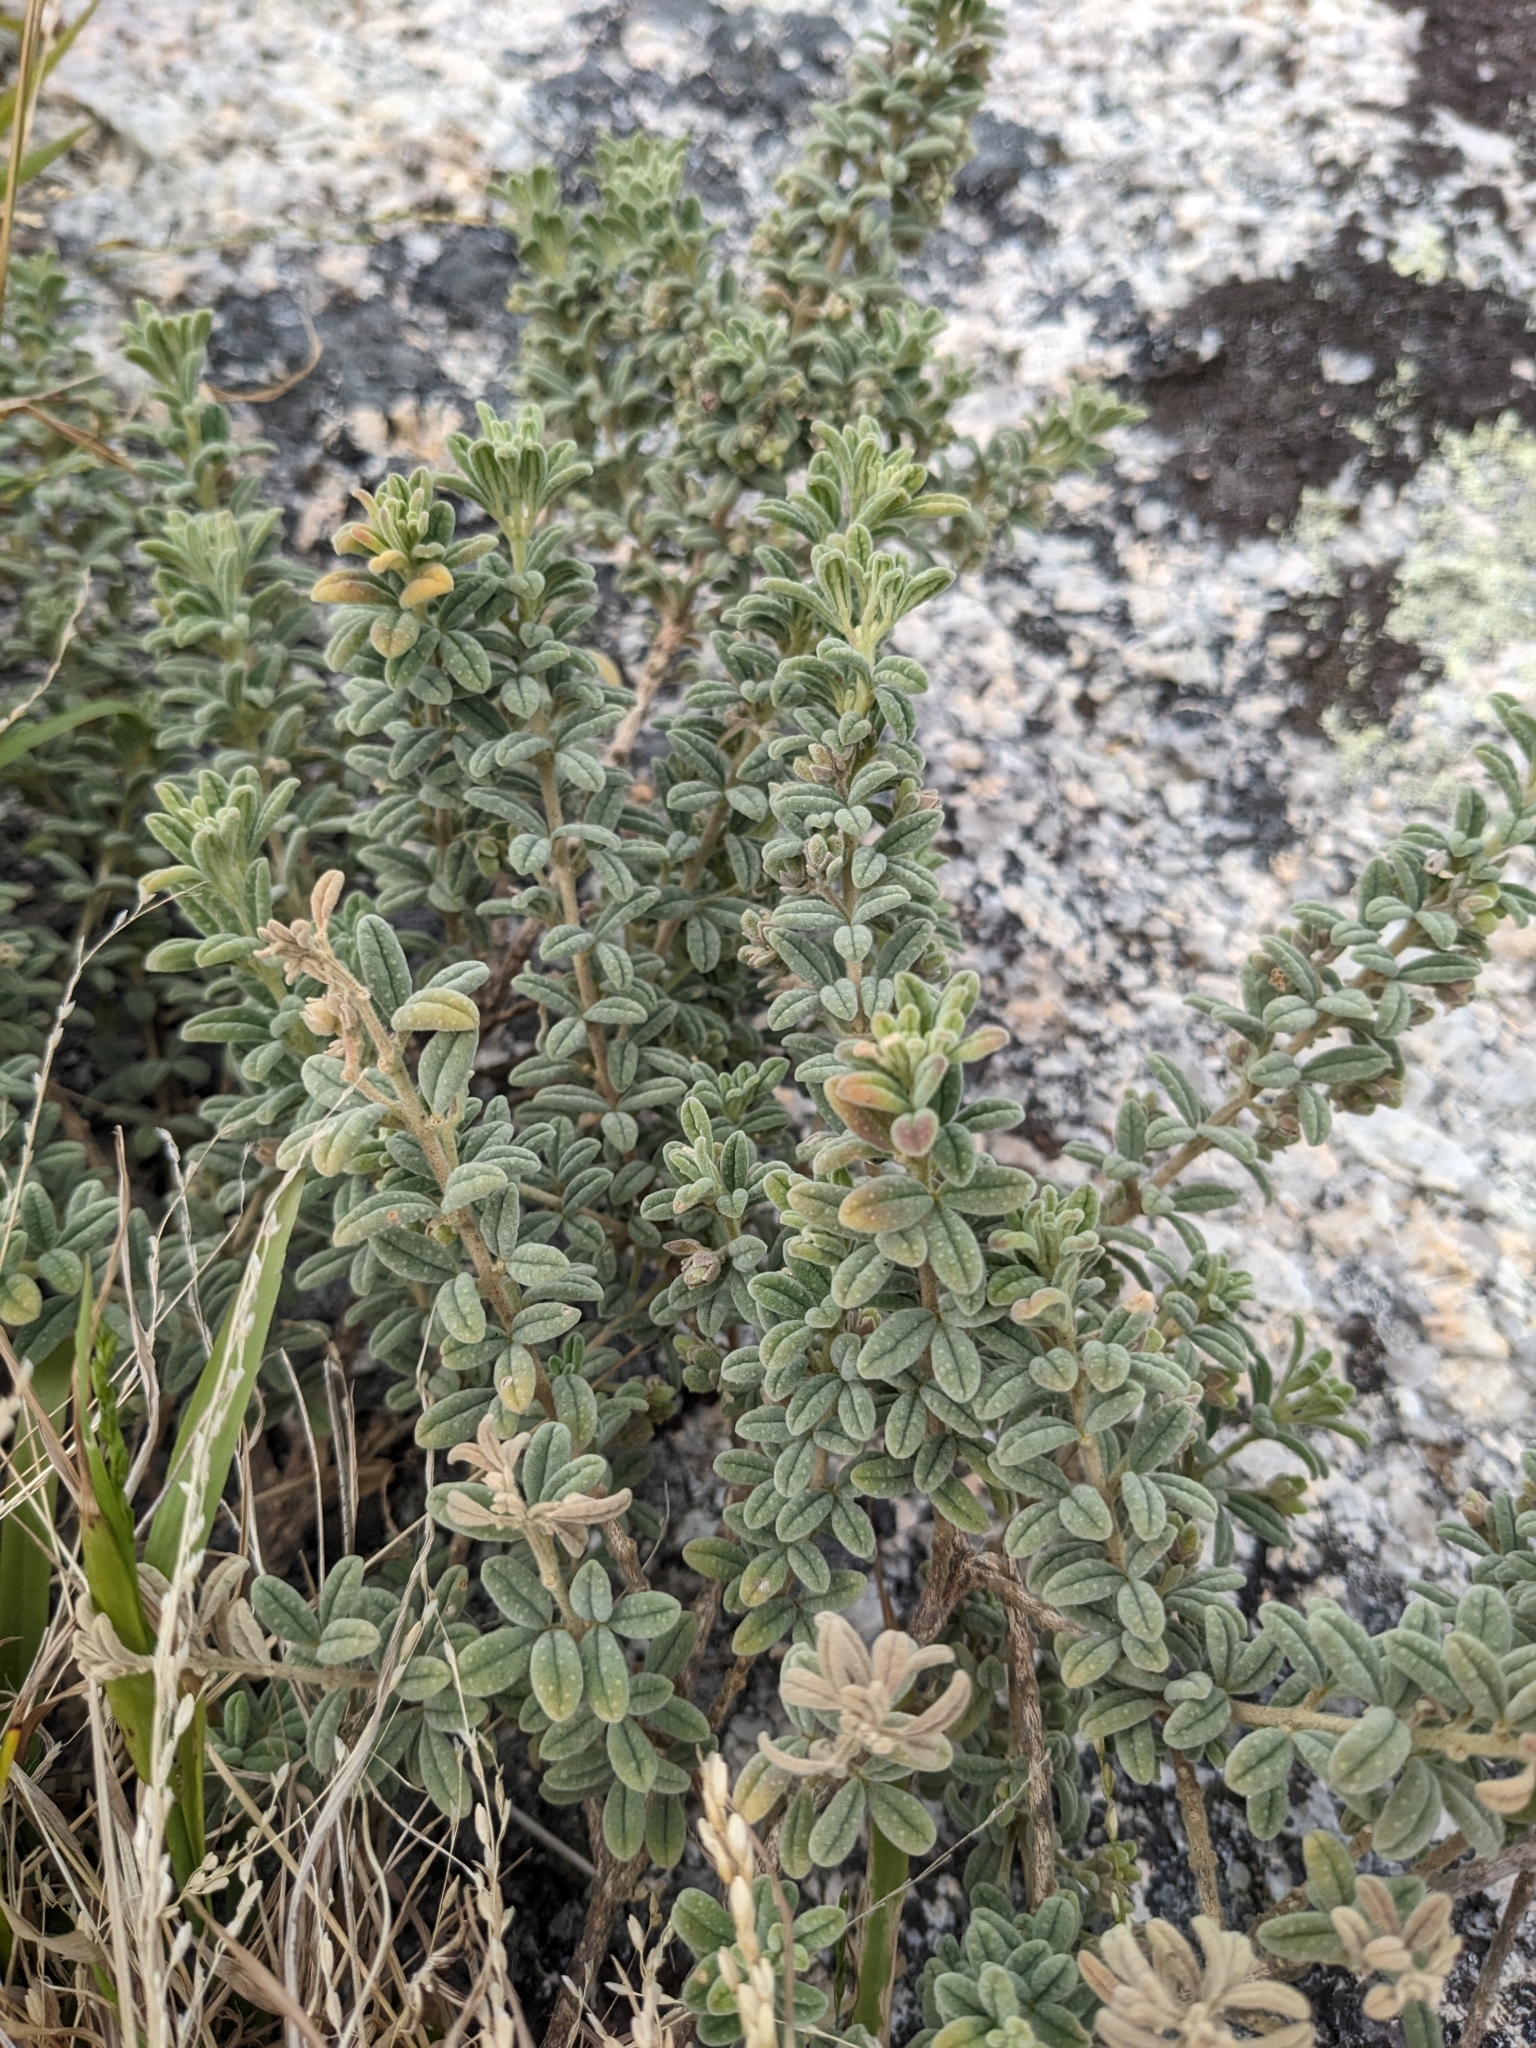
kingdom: Plantae
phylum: Tracheophyta
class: Magnoliopsida
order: Sapindales
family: Rutaceae
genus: Zieria
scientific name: Zieria littoralis
